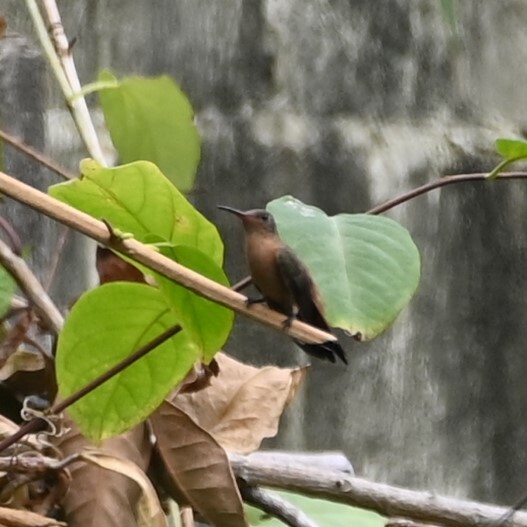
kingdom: Animalia
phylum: Chordata
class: Aves
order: Apodiformes
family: Trochilidae
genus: Amazilia
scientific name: Amazilia rutila
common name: Cinnamon hummingbird
